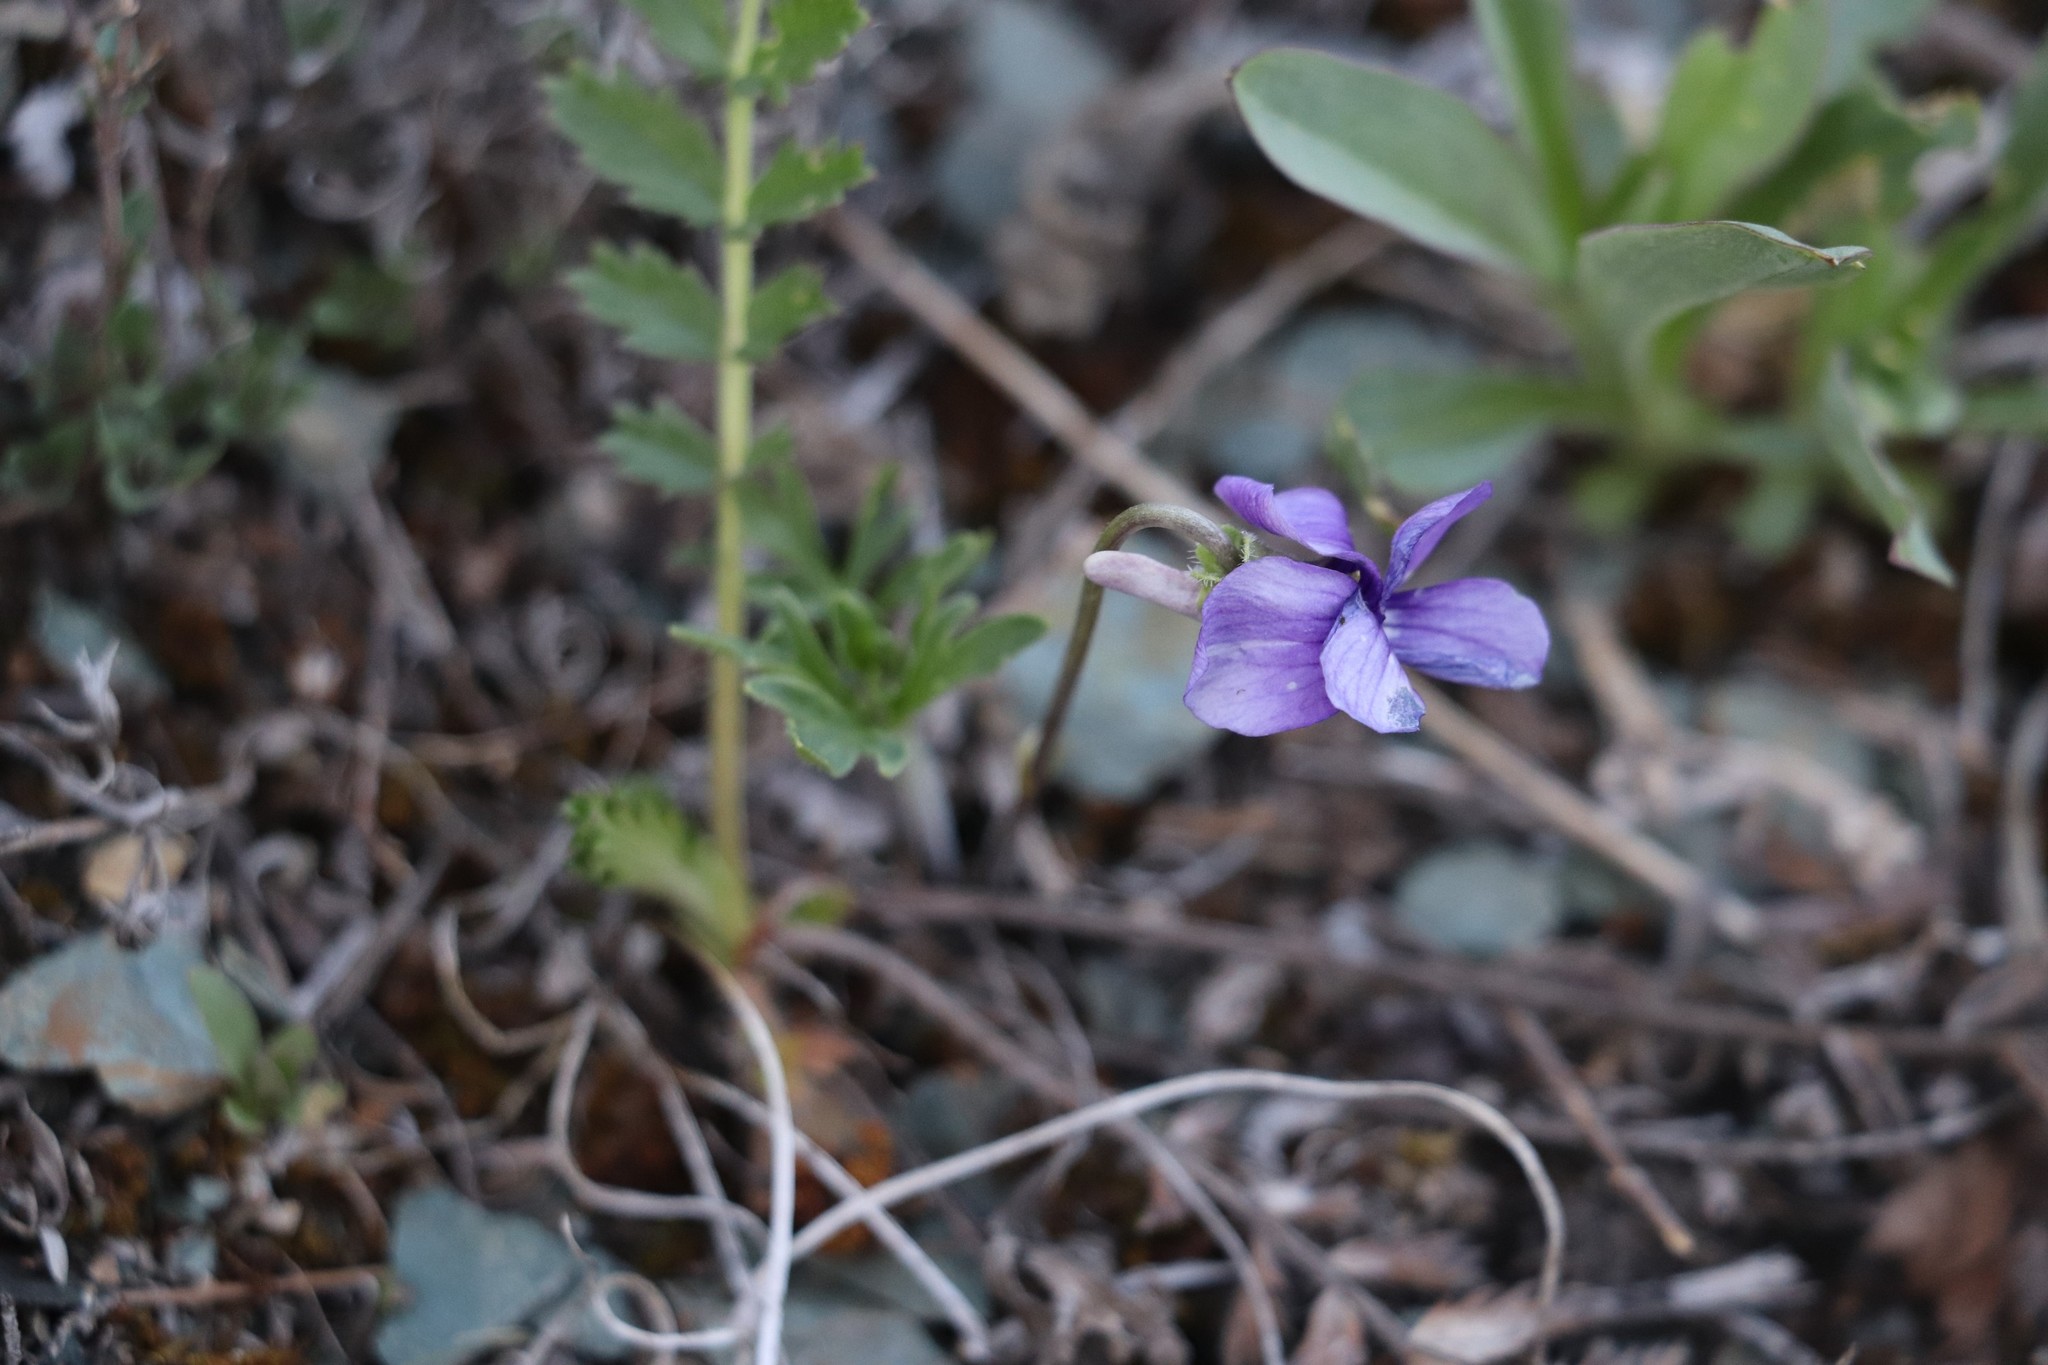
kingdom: Plantae
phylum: Tracheophyta
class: Magnoliopsida
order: Malpighiales
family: Violaceae
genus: Viola
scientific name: Viola multifida
